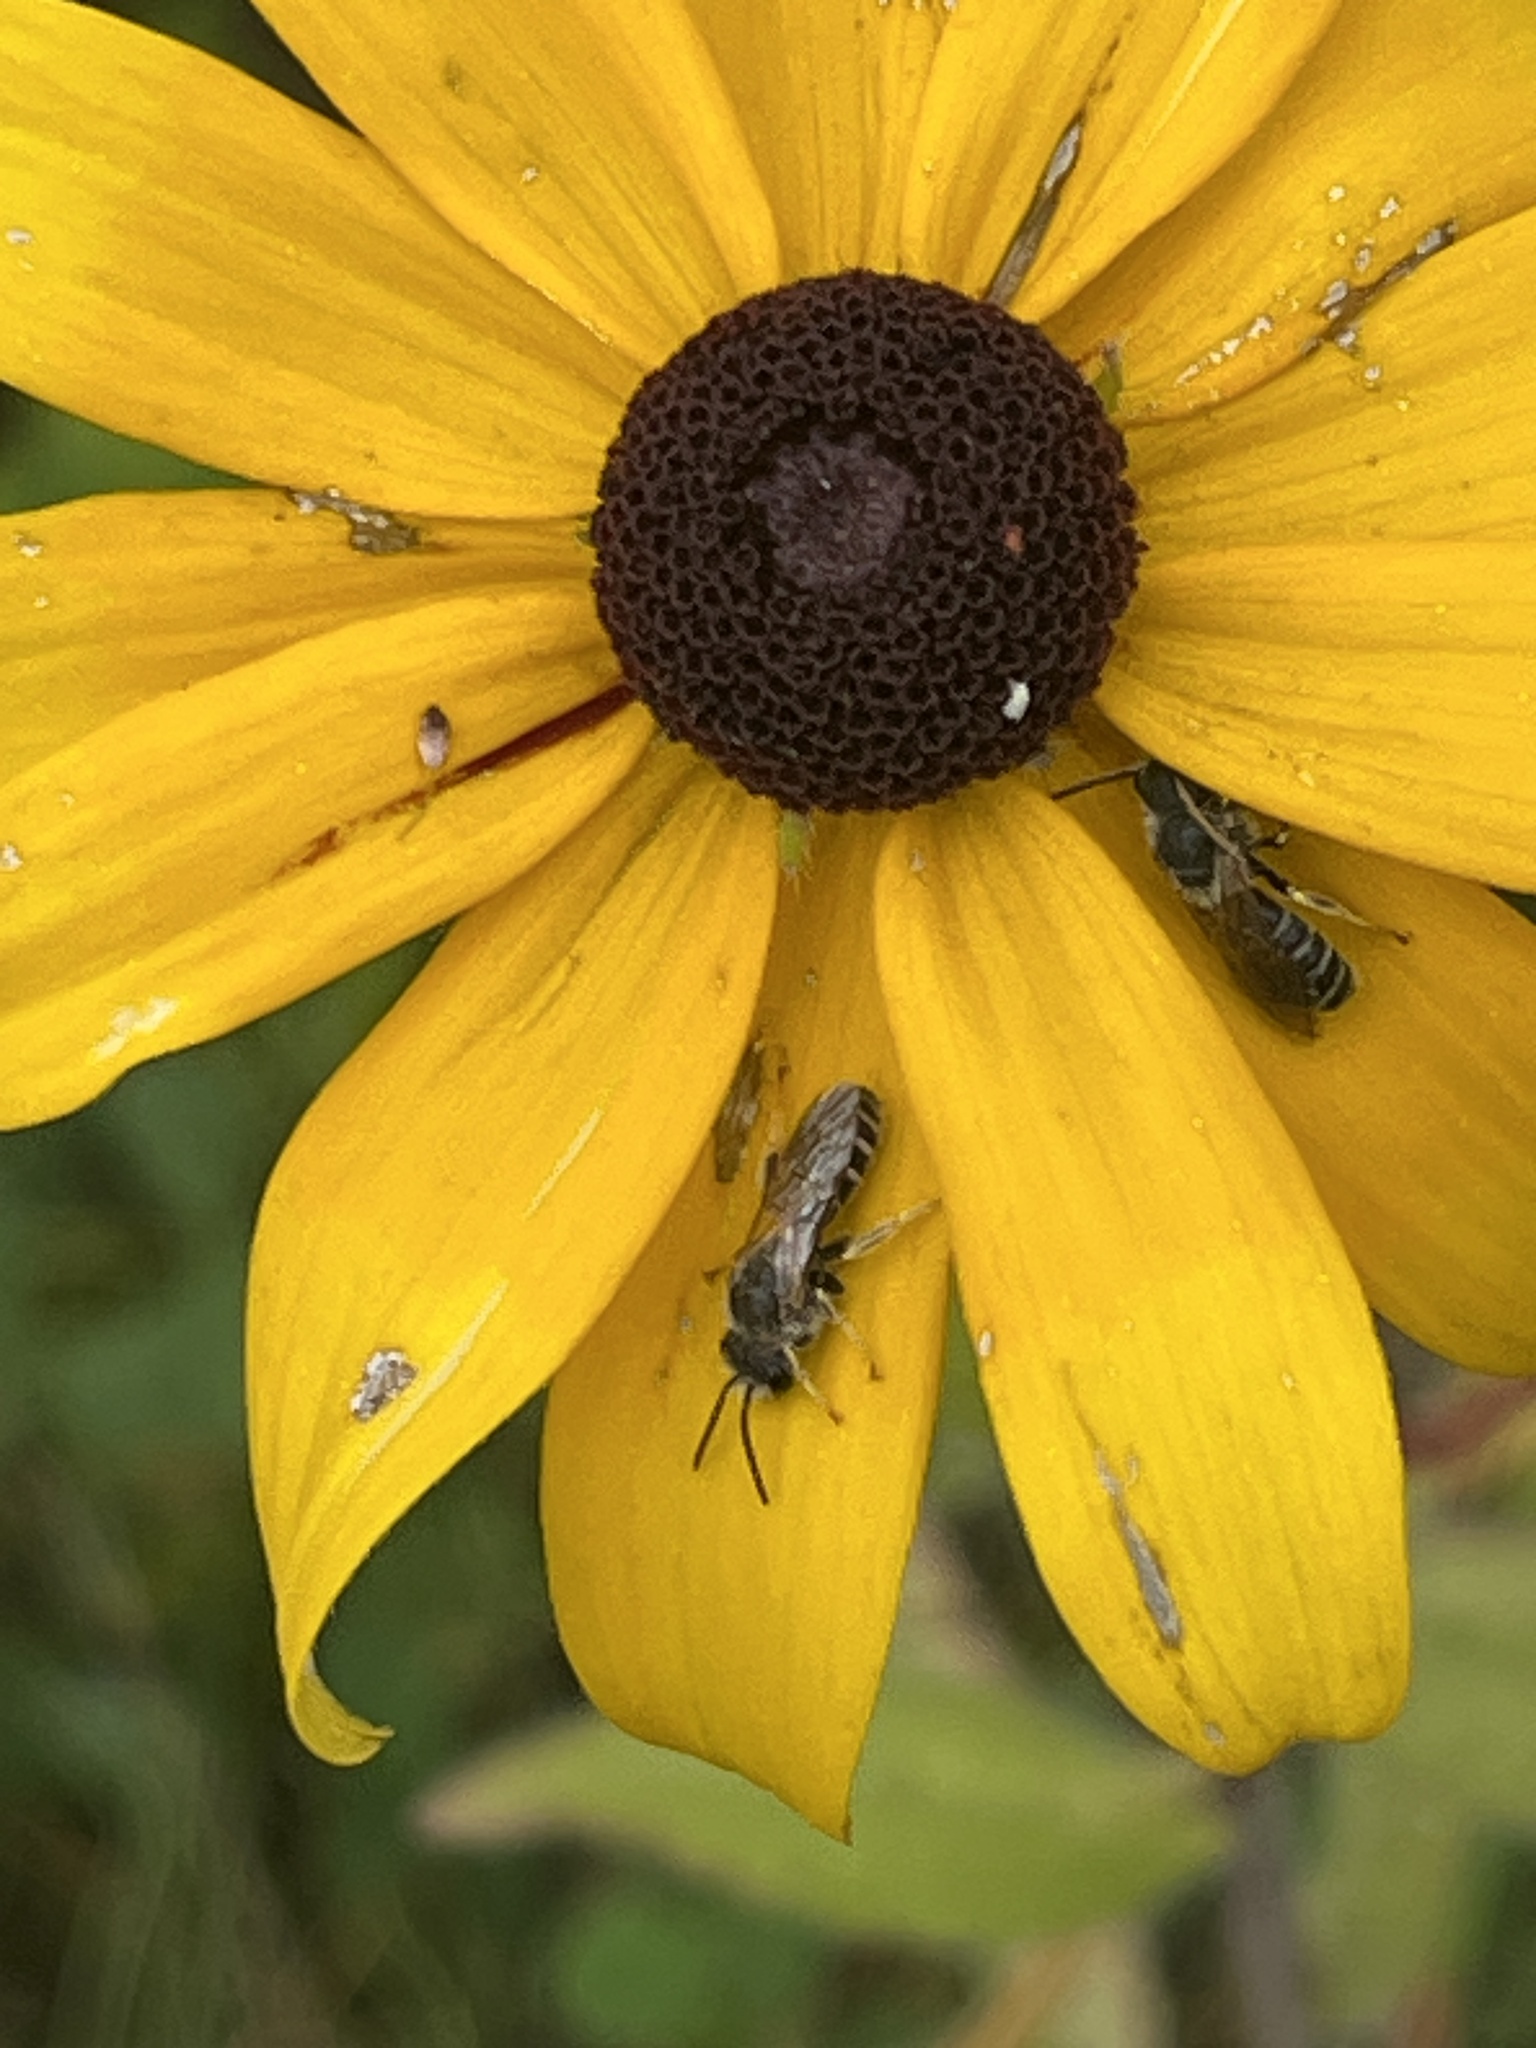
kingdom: Animalia
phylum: Arthropoda
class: Insecta
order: Hymenoptera
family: Halictidae
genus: Halictus
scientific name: Halictus ligatus
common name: Ligated furrow bee
